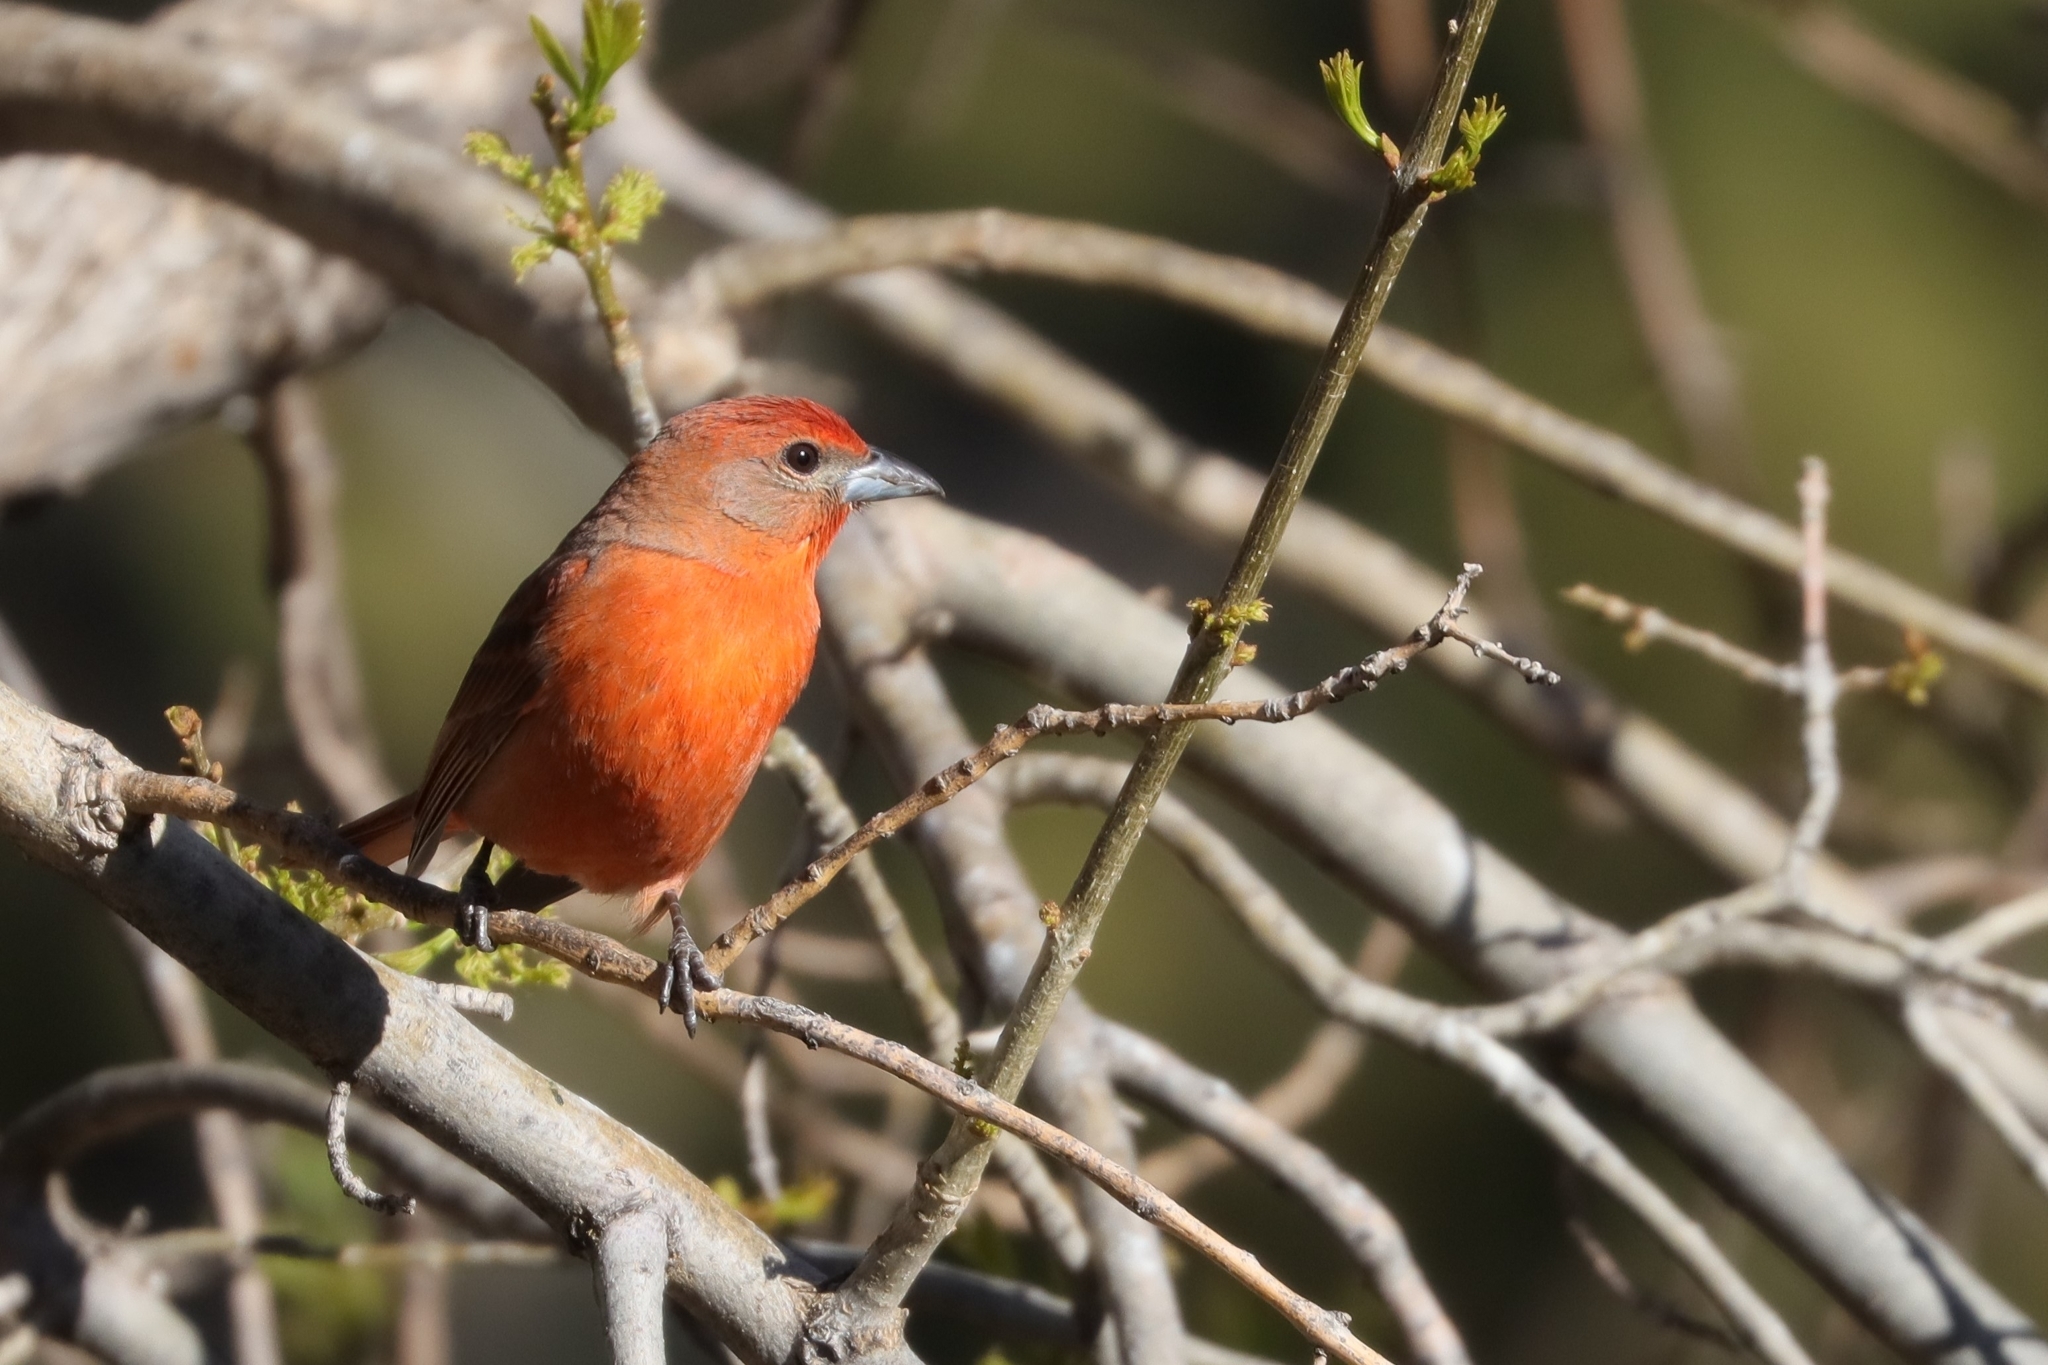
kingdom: Animalia
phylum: Chordata
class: Aves
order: Passeriformes
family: Cardinalidae
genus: Piranga
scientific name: Piranga flava
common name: Red tanager
